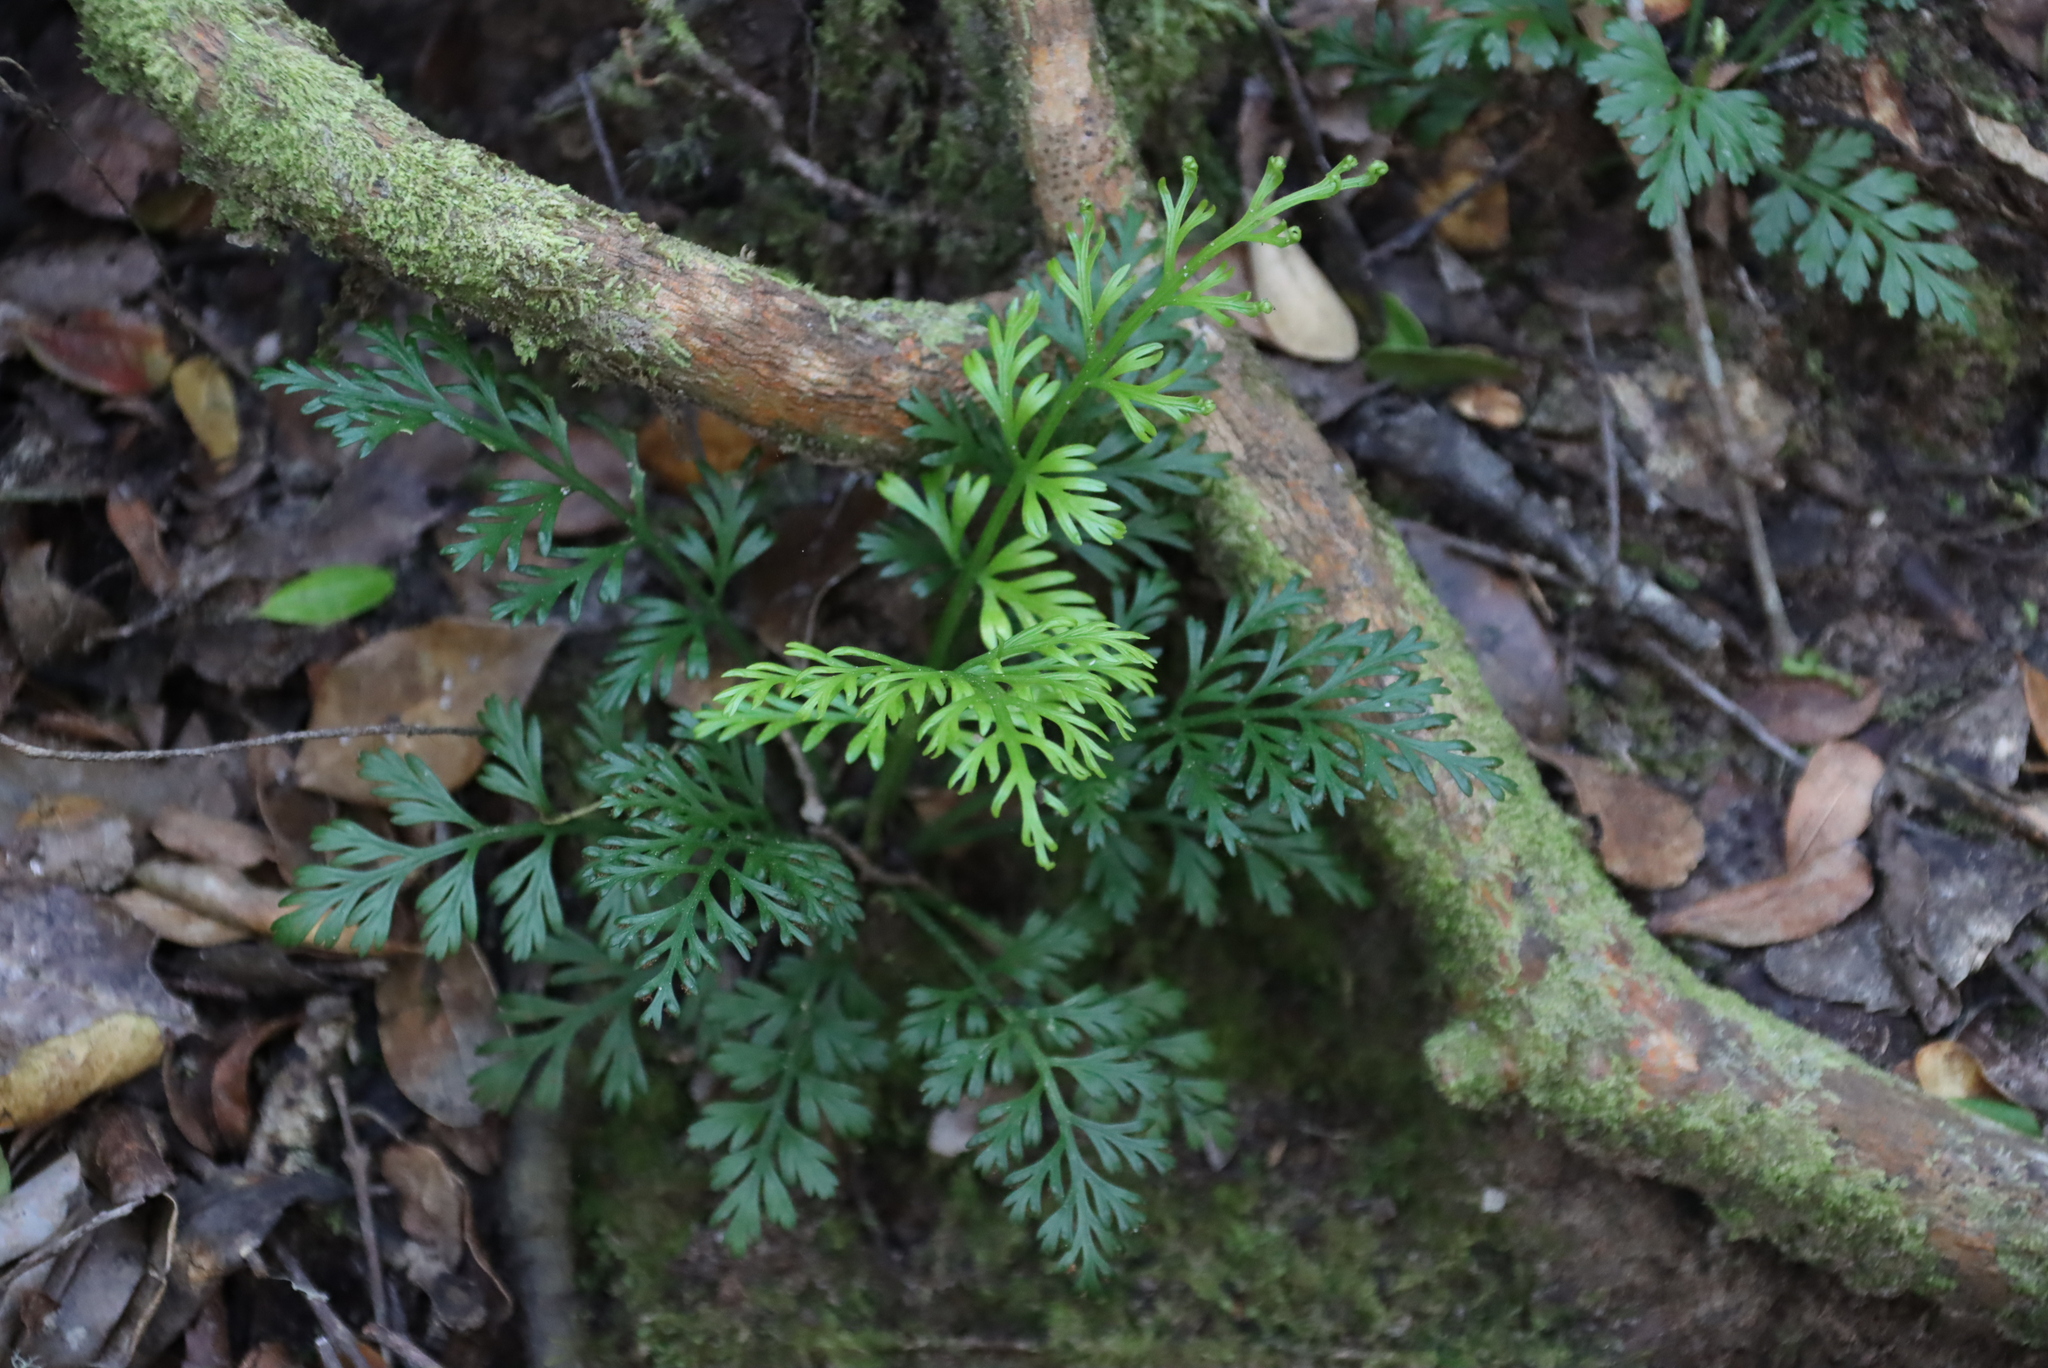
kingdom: Plantae
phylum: Tracheophyta
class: Polypodiopsida
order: Polypodiales
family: Aspleniaceae
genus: Asplenium
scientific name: Asplenium rutifolium
